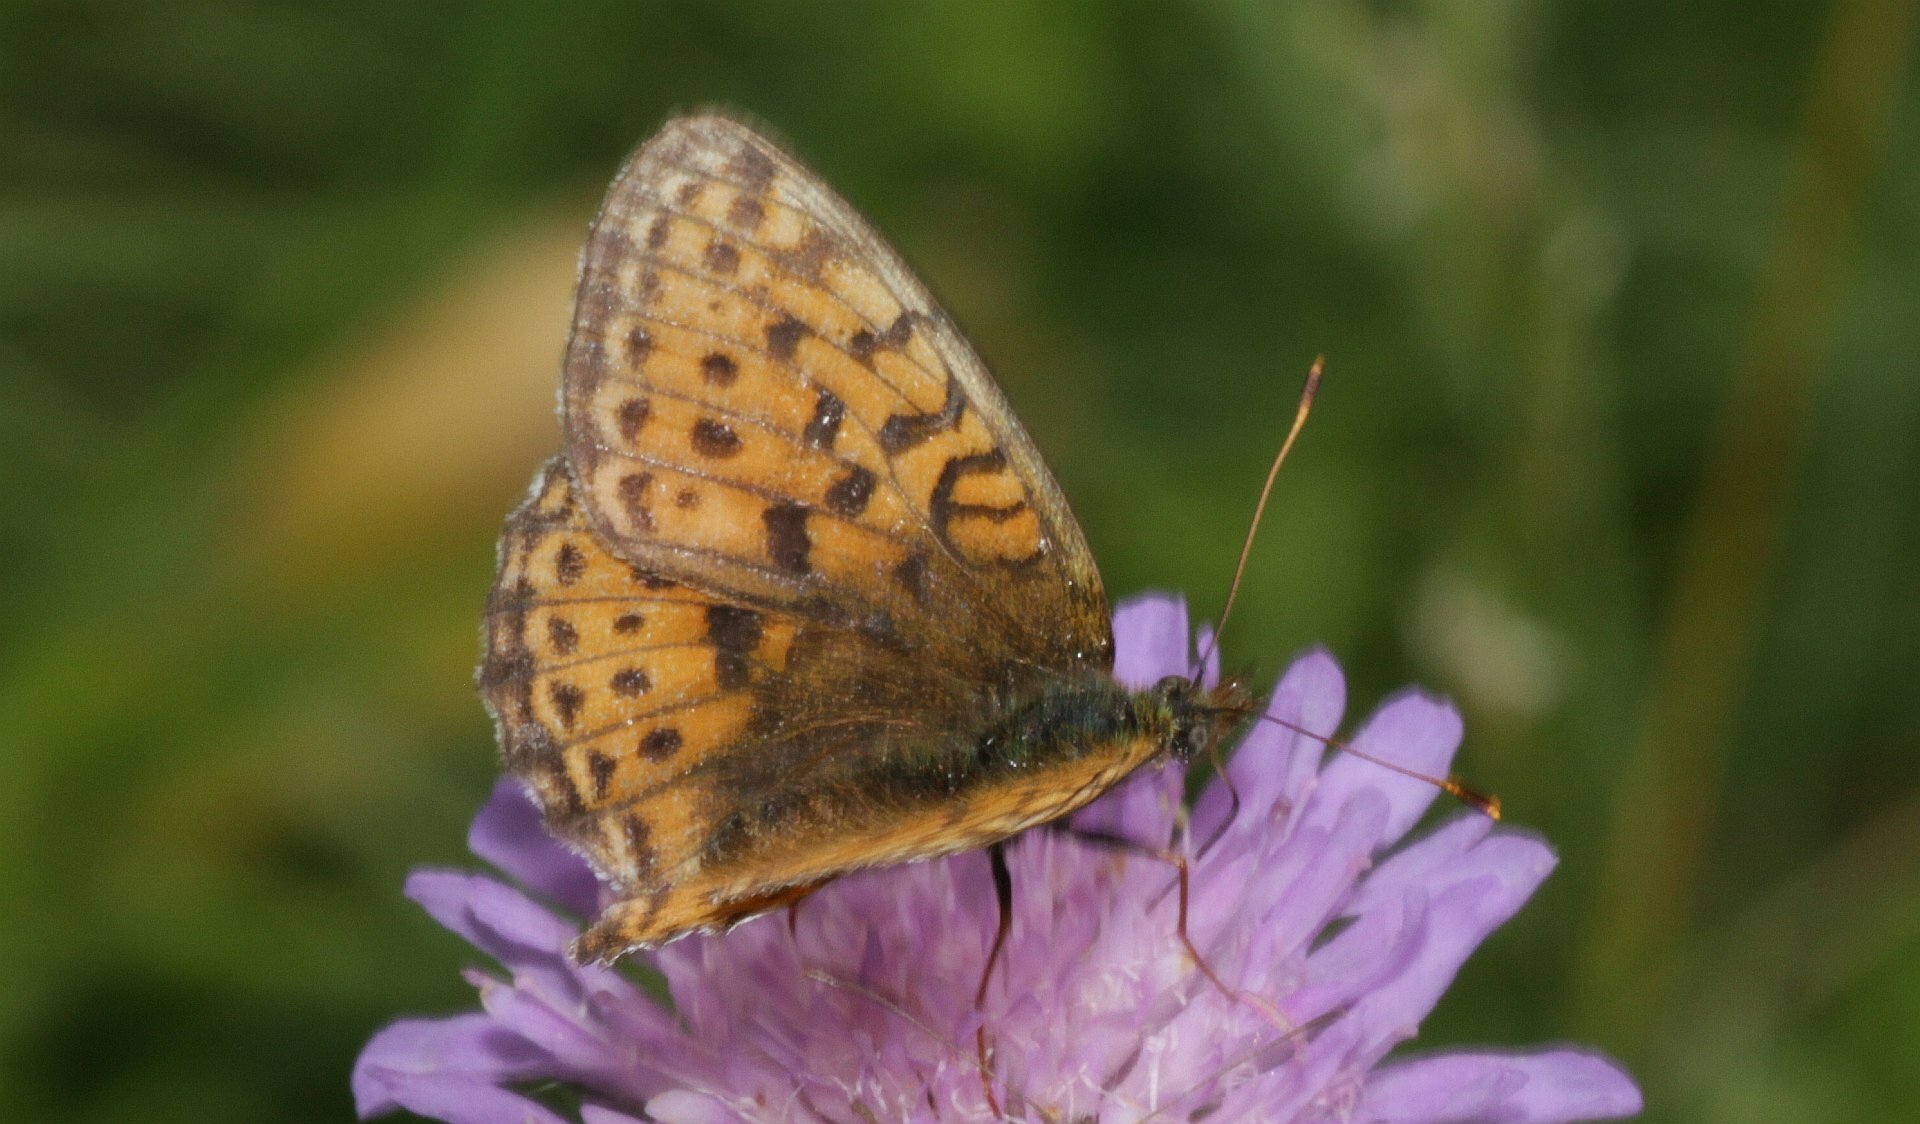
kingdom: Animalia
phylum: Arthropoda
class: Insecta
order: Lepidoptera
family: Nymphalidae
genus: Brenthis
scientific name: Brenthis ino
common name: Lesser marbled fritillary
